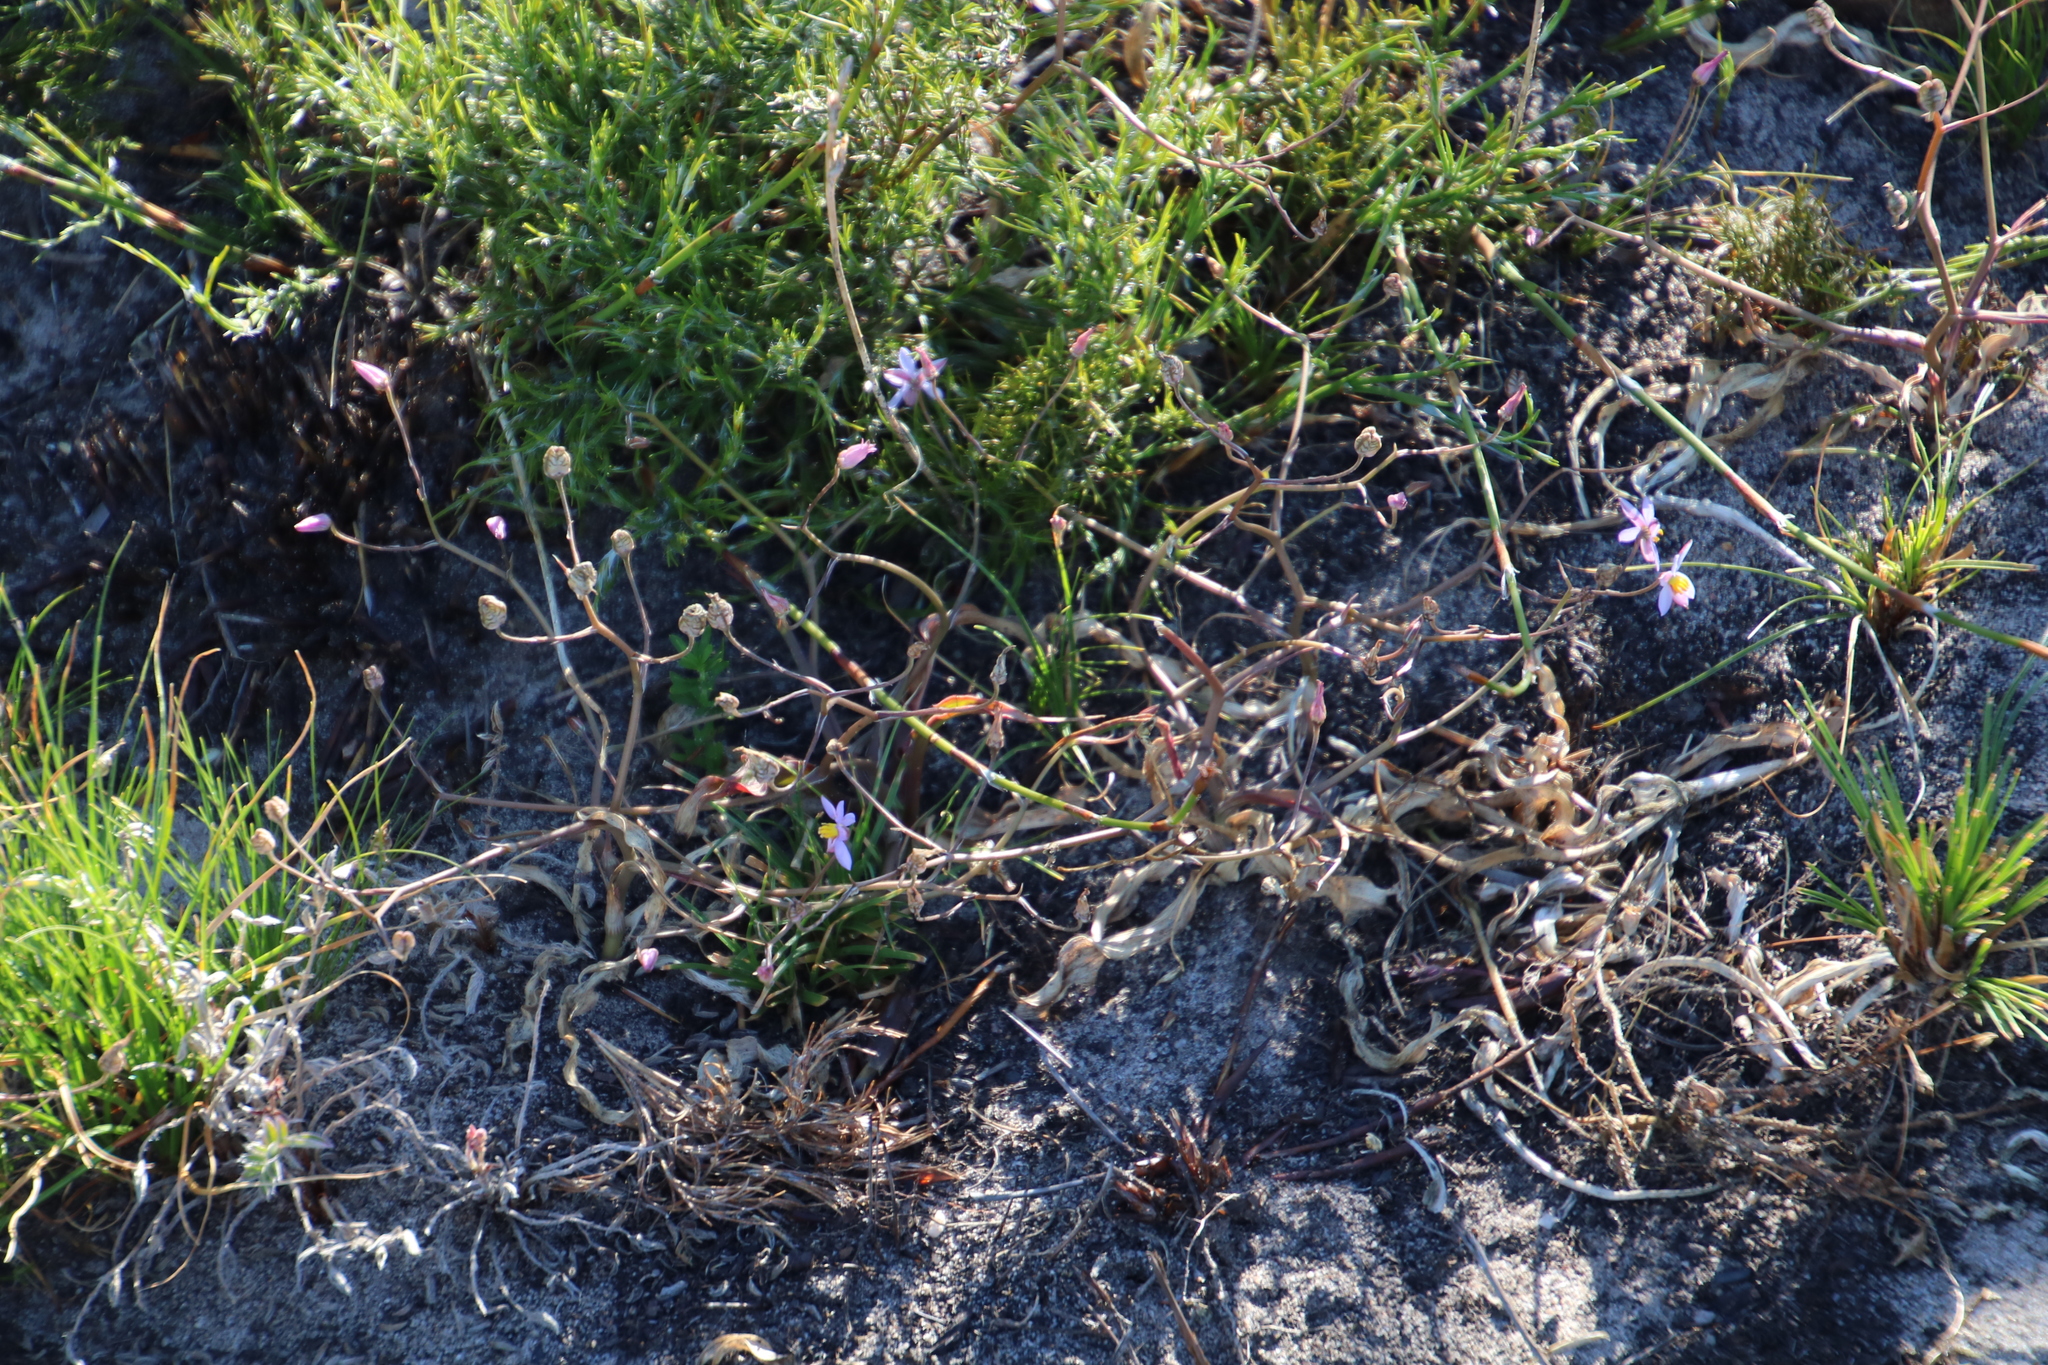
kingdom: Plantae
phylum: Tracheophyta
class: Liliopsida
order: Asparagales
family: Tecophilaeaceae
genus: Cyanella
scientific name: Cyanella hyacinthoides
